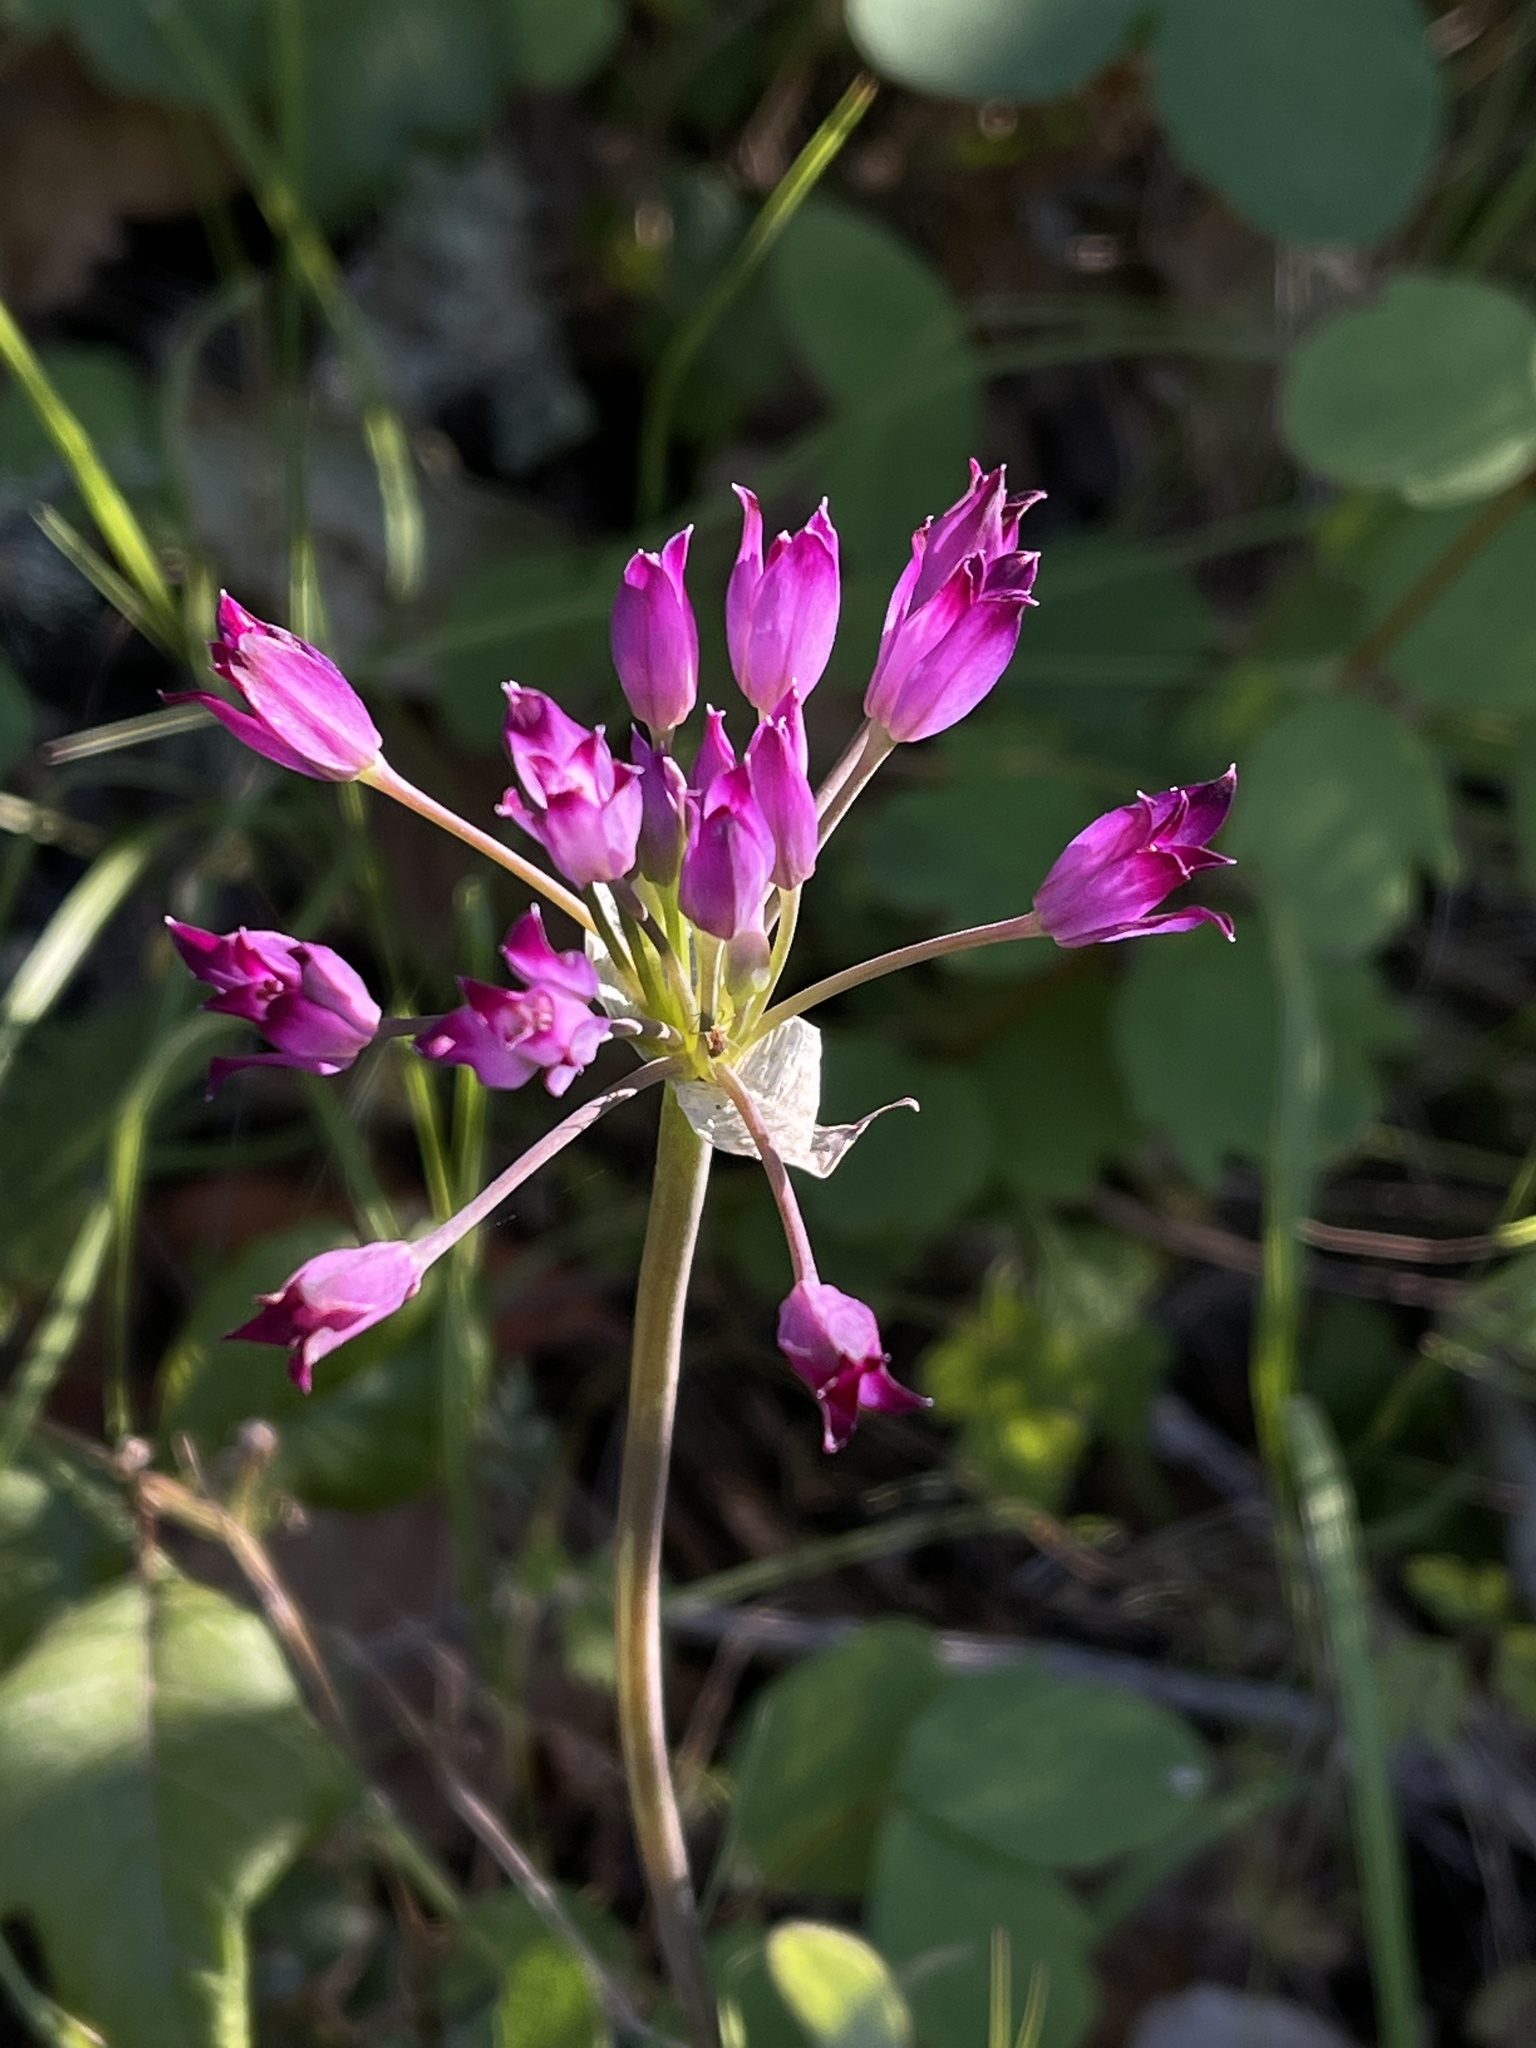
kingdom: Plantae
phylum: Tracheophyta
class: Liliopsida
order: Asparagales
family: Amaryllidaceae
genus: Allium
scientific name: Allium peninsulare
